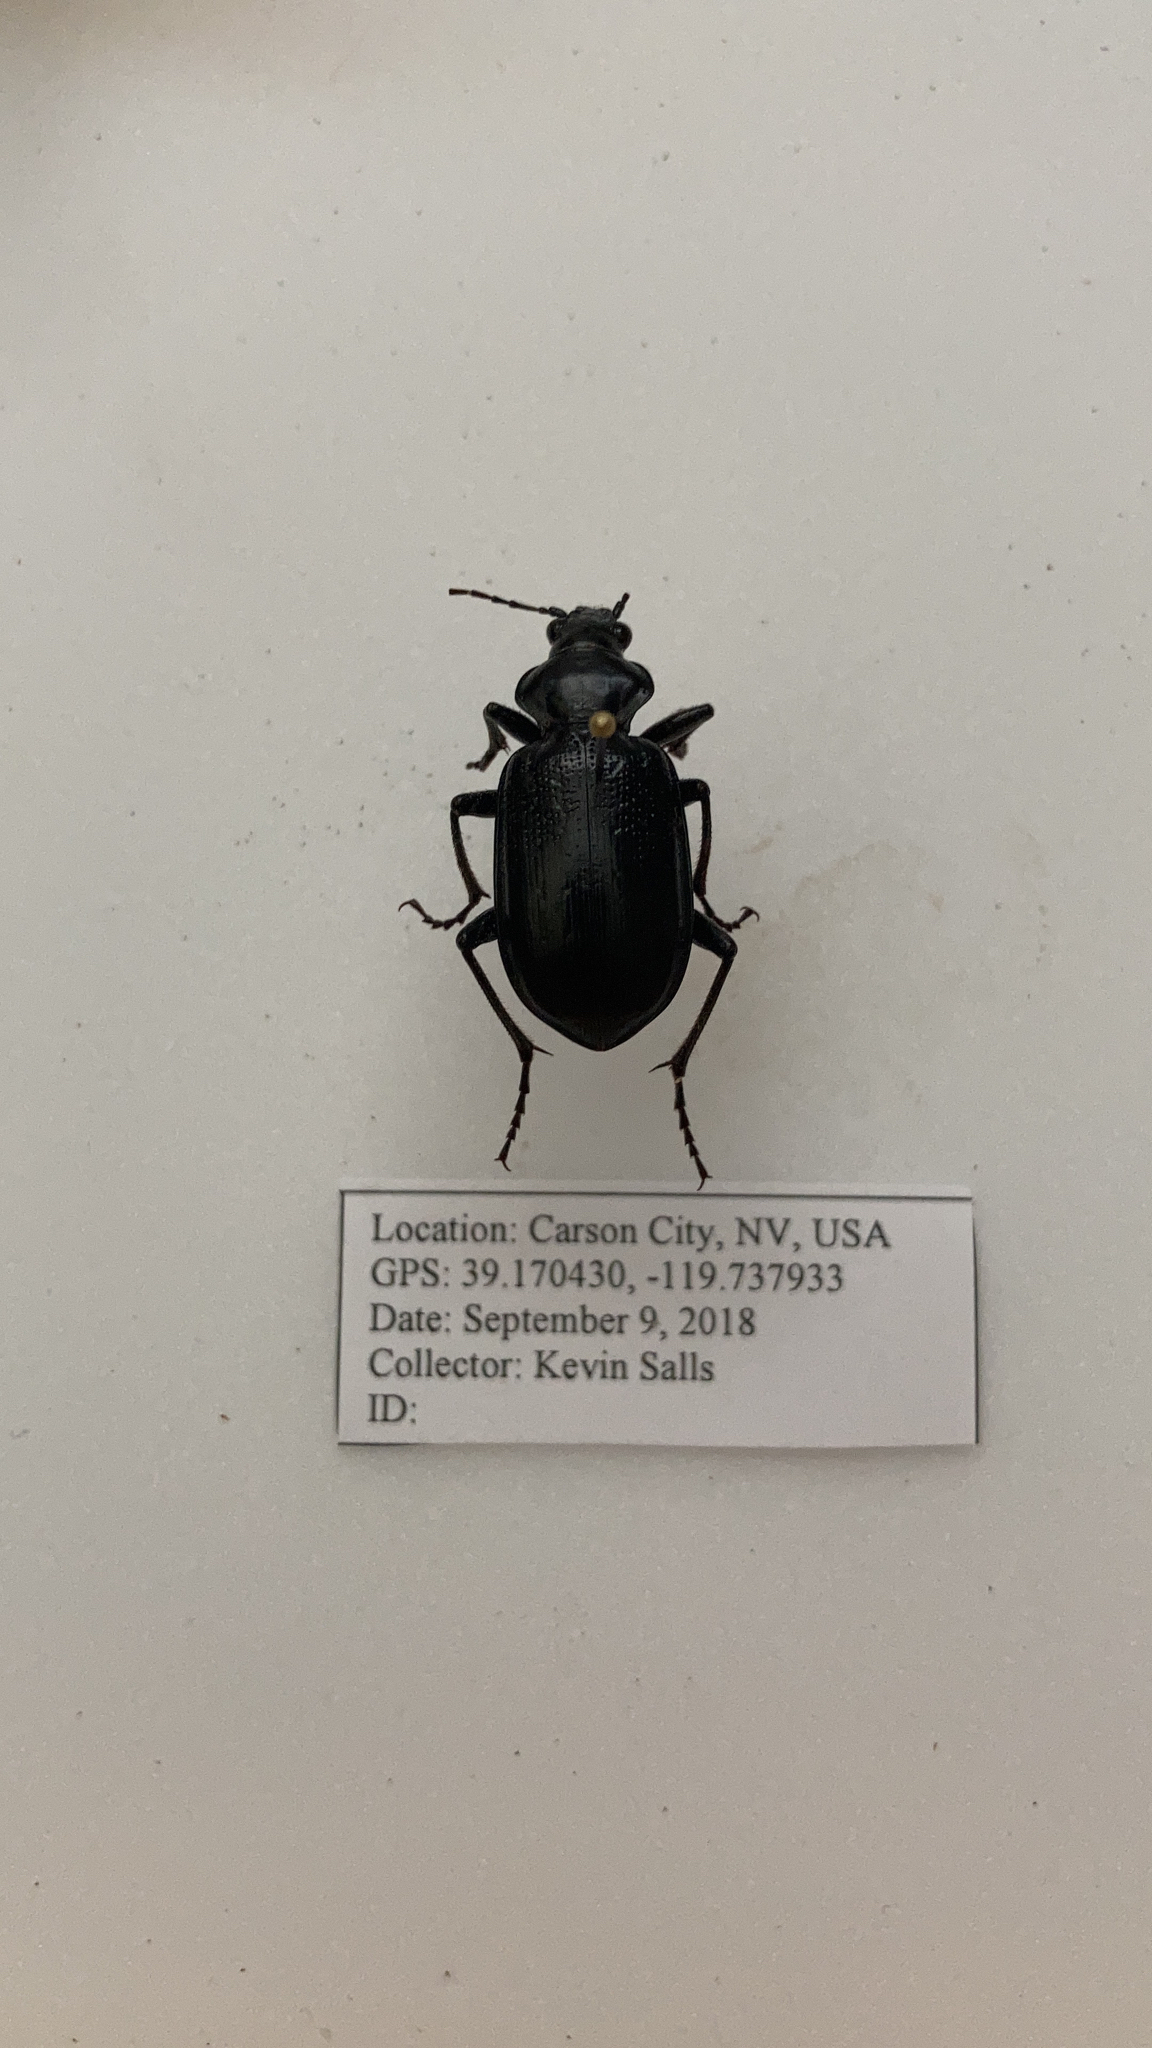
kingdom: Animalia
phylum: Arthropoda
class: Insecta
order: Coleoptera
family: Carabidae
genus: Calosoma
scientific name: Calosoma marginale
